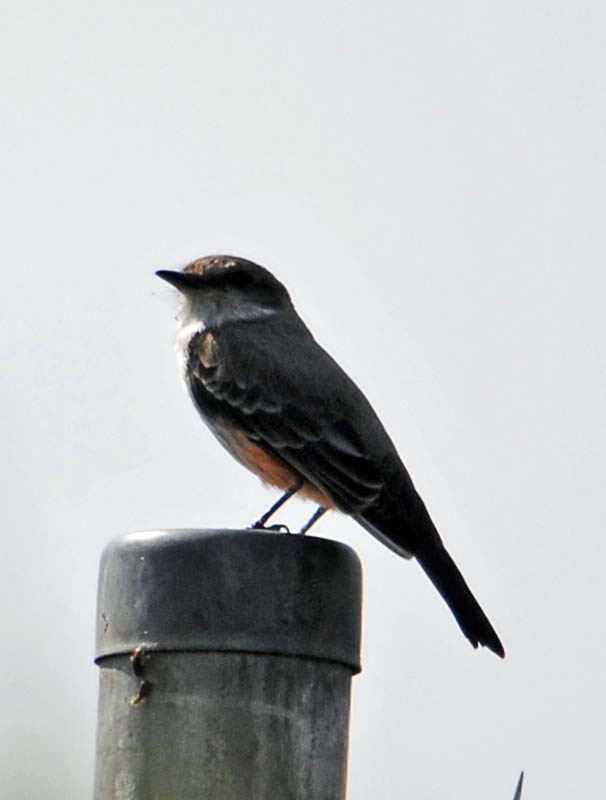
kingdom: Animalia
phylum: Chordata
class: Aves
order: Passeriformes
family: Tyrannidae
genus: Pyrocephalus
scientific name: Pyrocephalus rubinus
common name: Vermilion flycatcher
